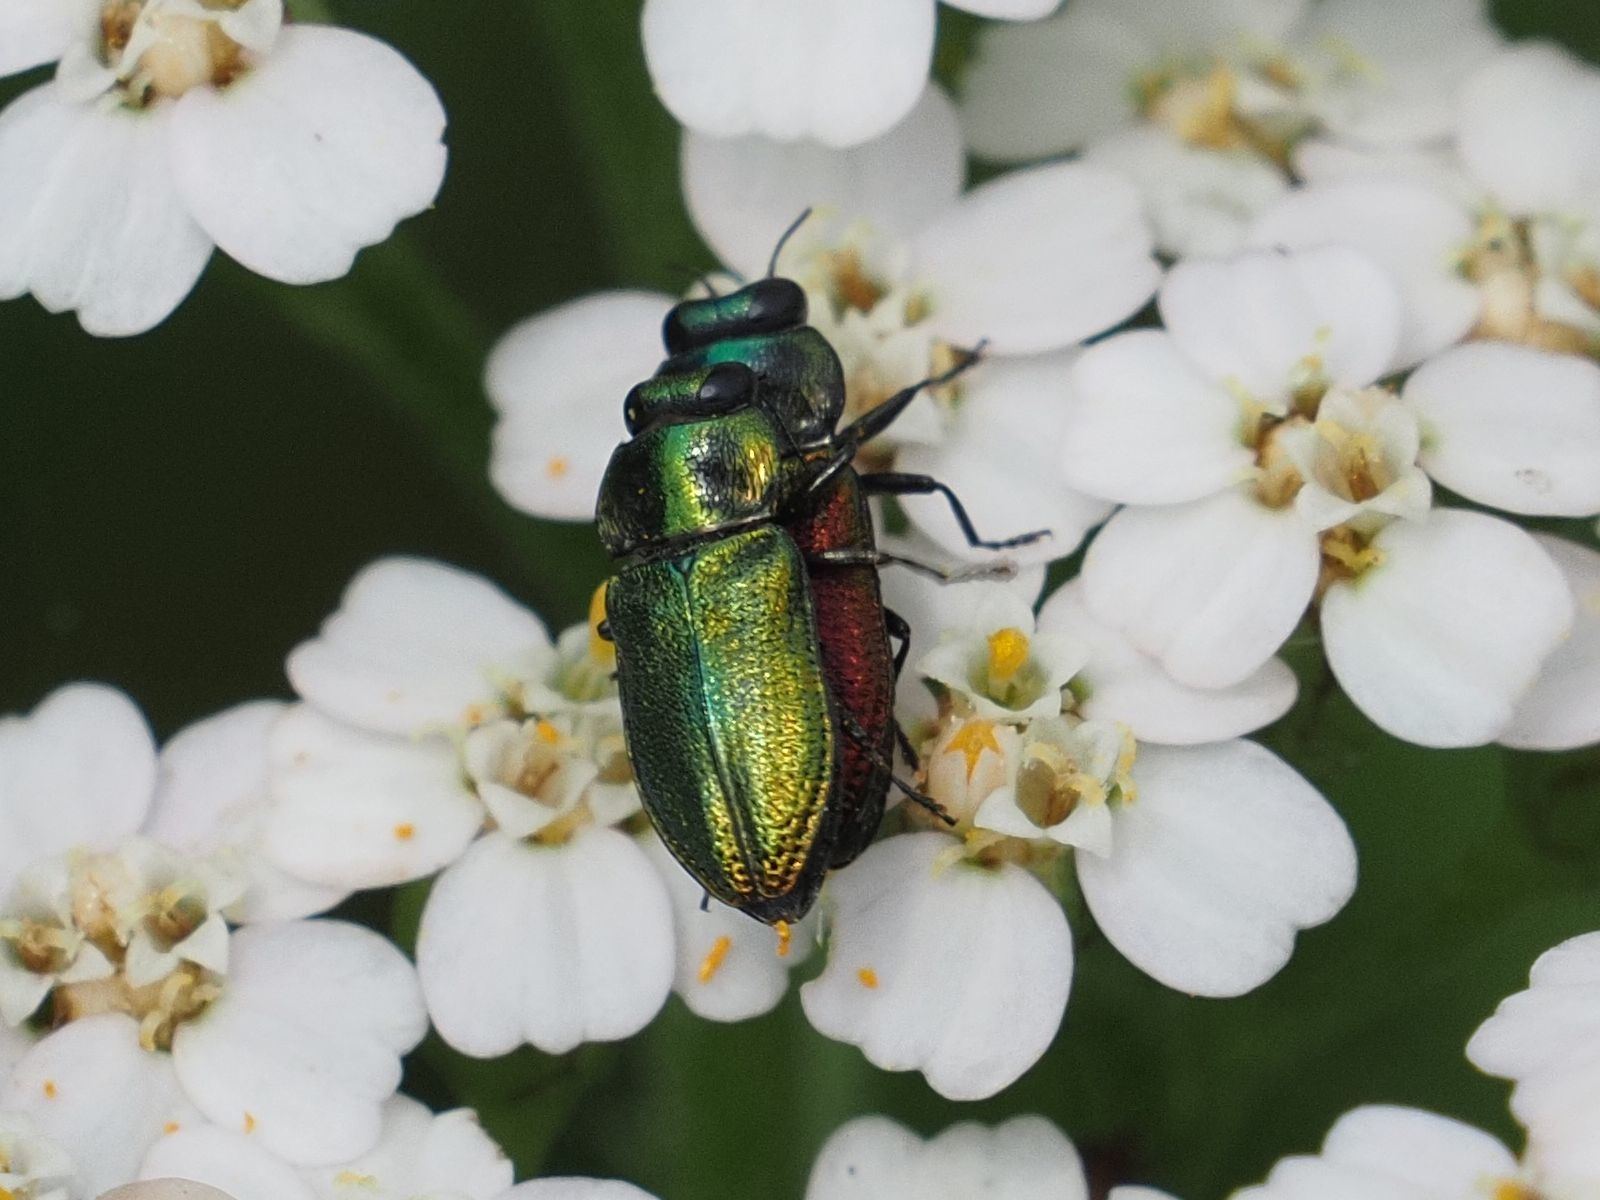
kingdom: Animalia
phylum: Arthropoda
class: Insecta
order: Coleoptera
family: Buprestidae
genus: Anthaxia
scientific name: Anthaxia fulgurans
